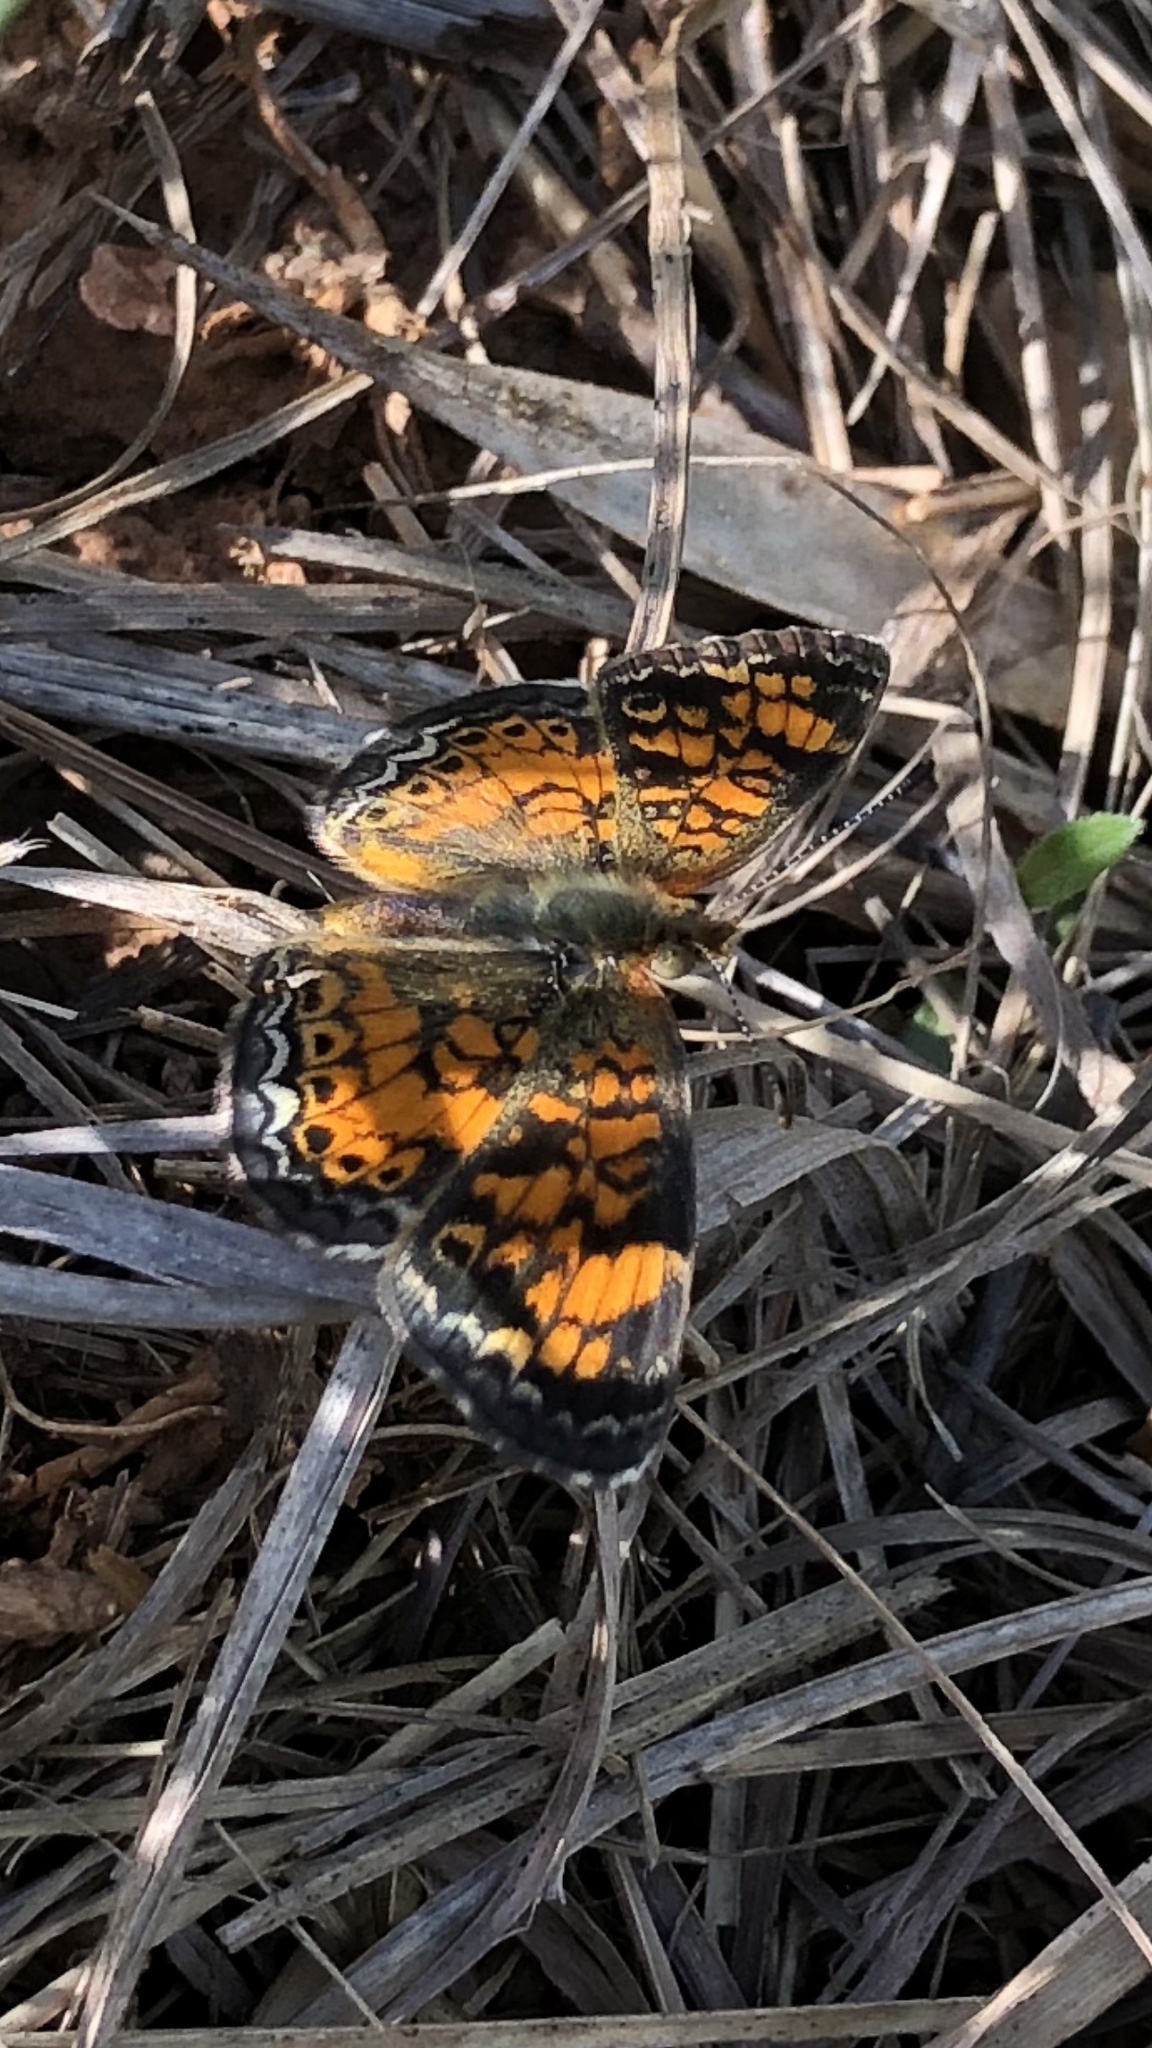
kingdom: Animalia
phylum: Arthropoda
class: Insecta
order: Lepidoptera
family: Nymphalidae
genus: Phyciodes
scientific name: Phyciodes tharos
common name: Pearl crescent
